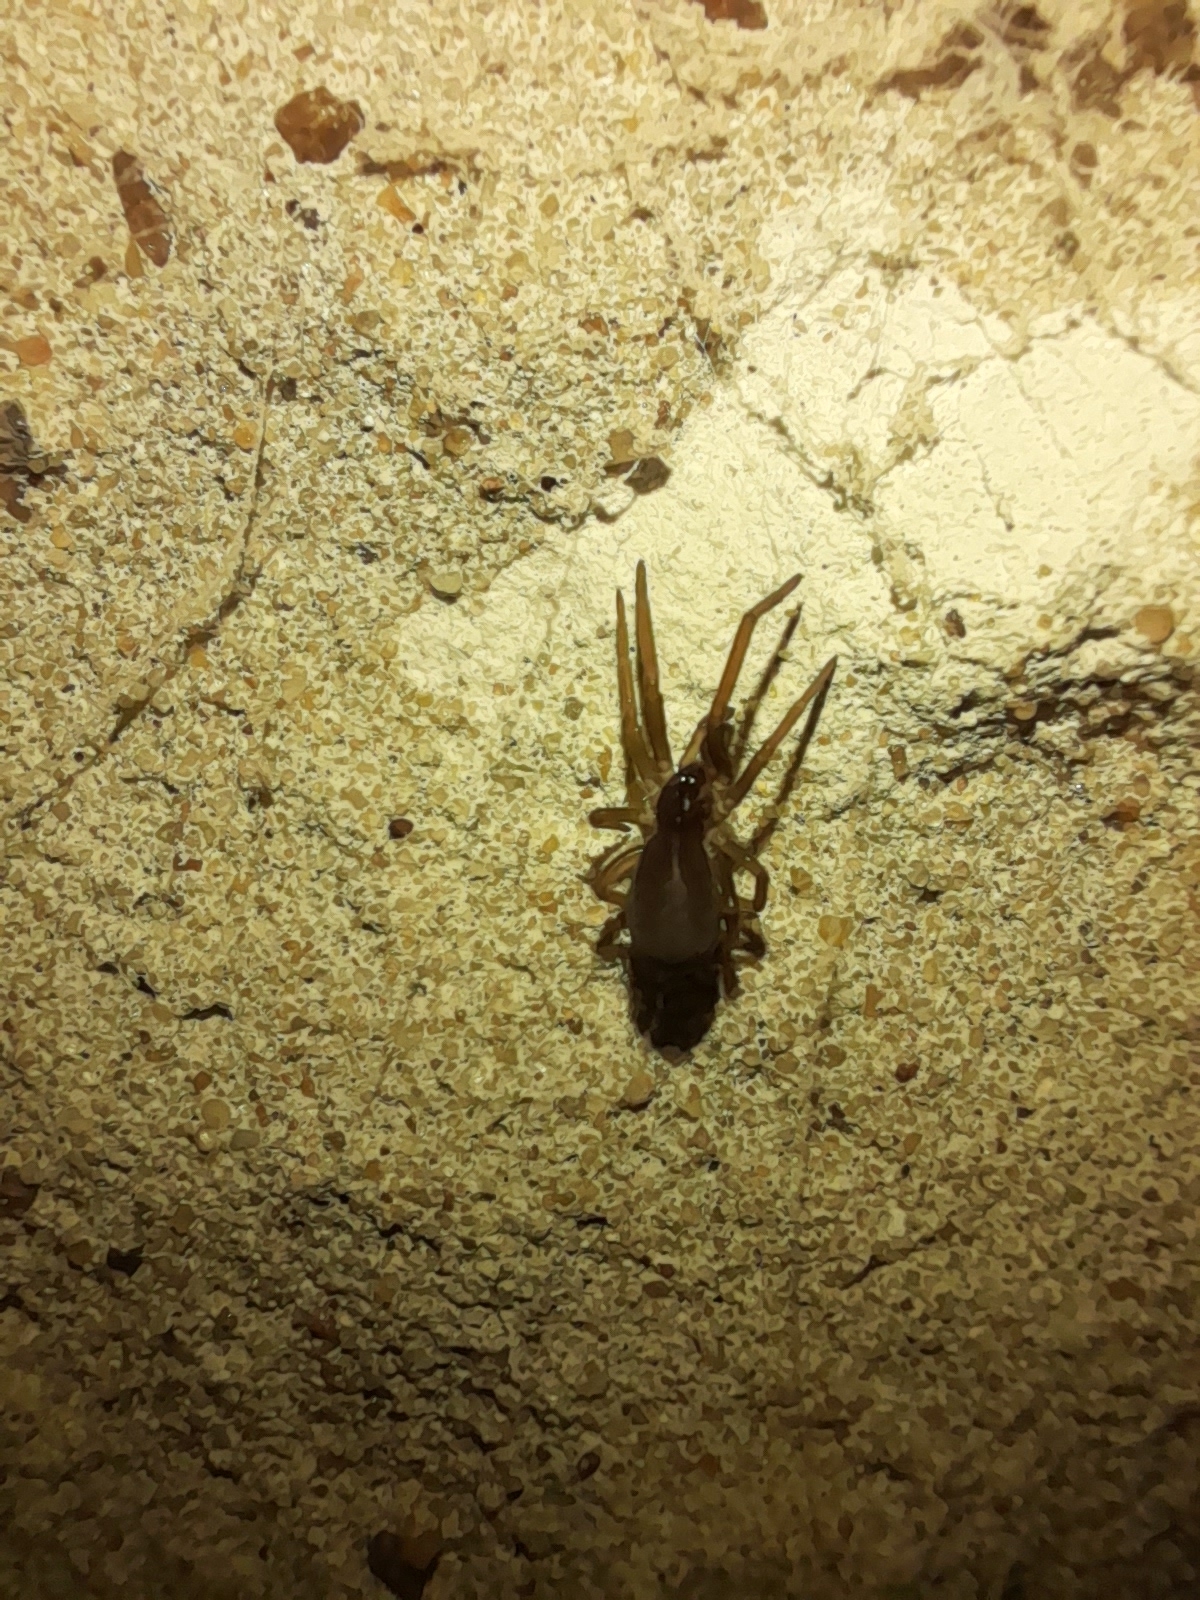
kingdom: Animalia
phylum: Arthropoda
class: Arachnida
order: Araneae
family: Filistatidae
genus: Kukulcania
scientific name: Kukulcania hibernalis
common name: Crevice weaver
